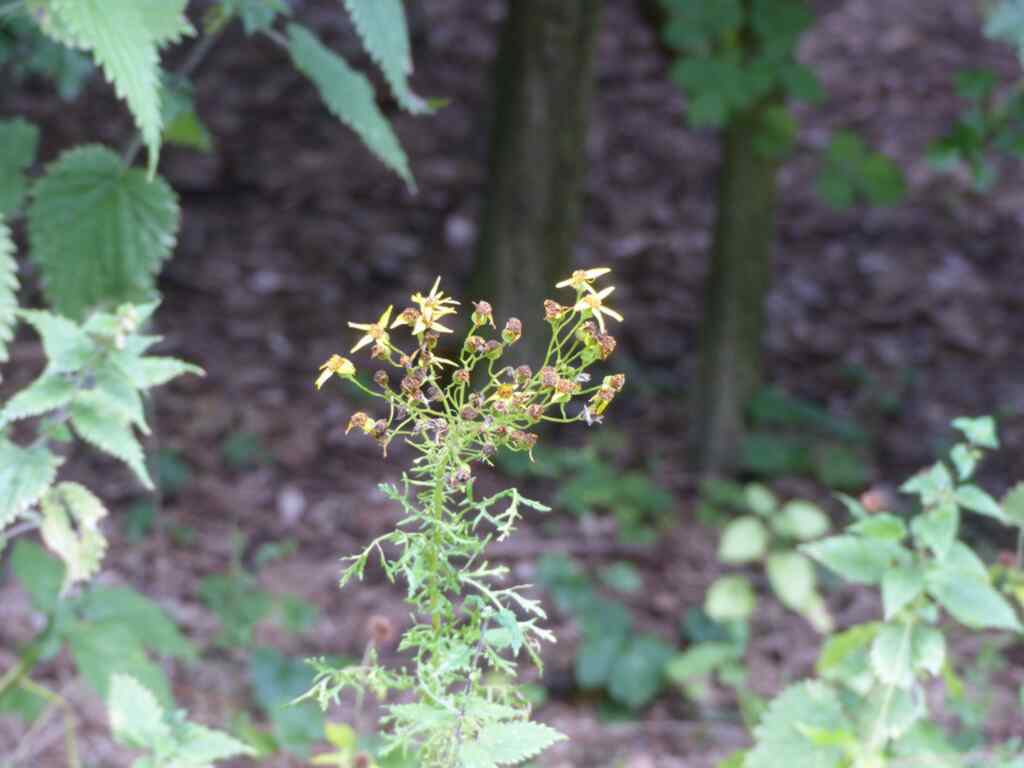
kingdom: Plantae
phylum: Tracheophyta
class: Magnoliopsida
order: Asterales
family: Asteraceae
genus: Jacobaea
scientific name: Jacobaea vulgaris
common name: Stinking willie
